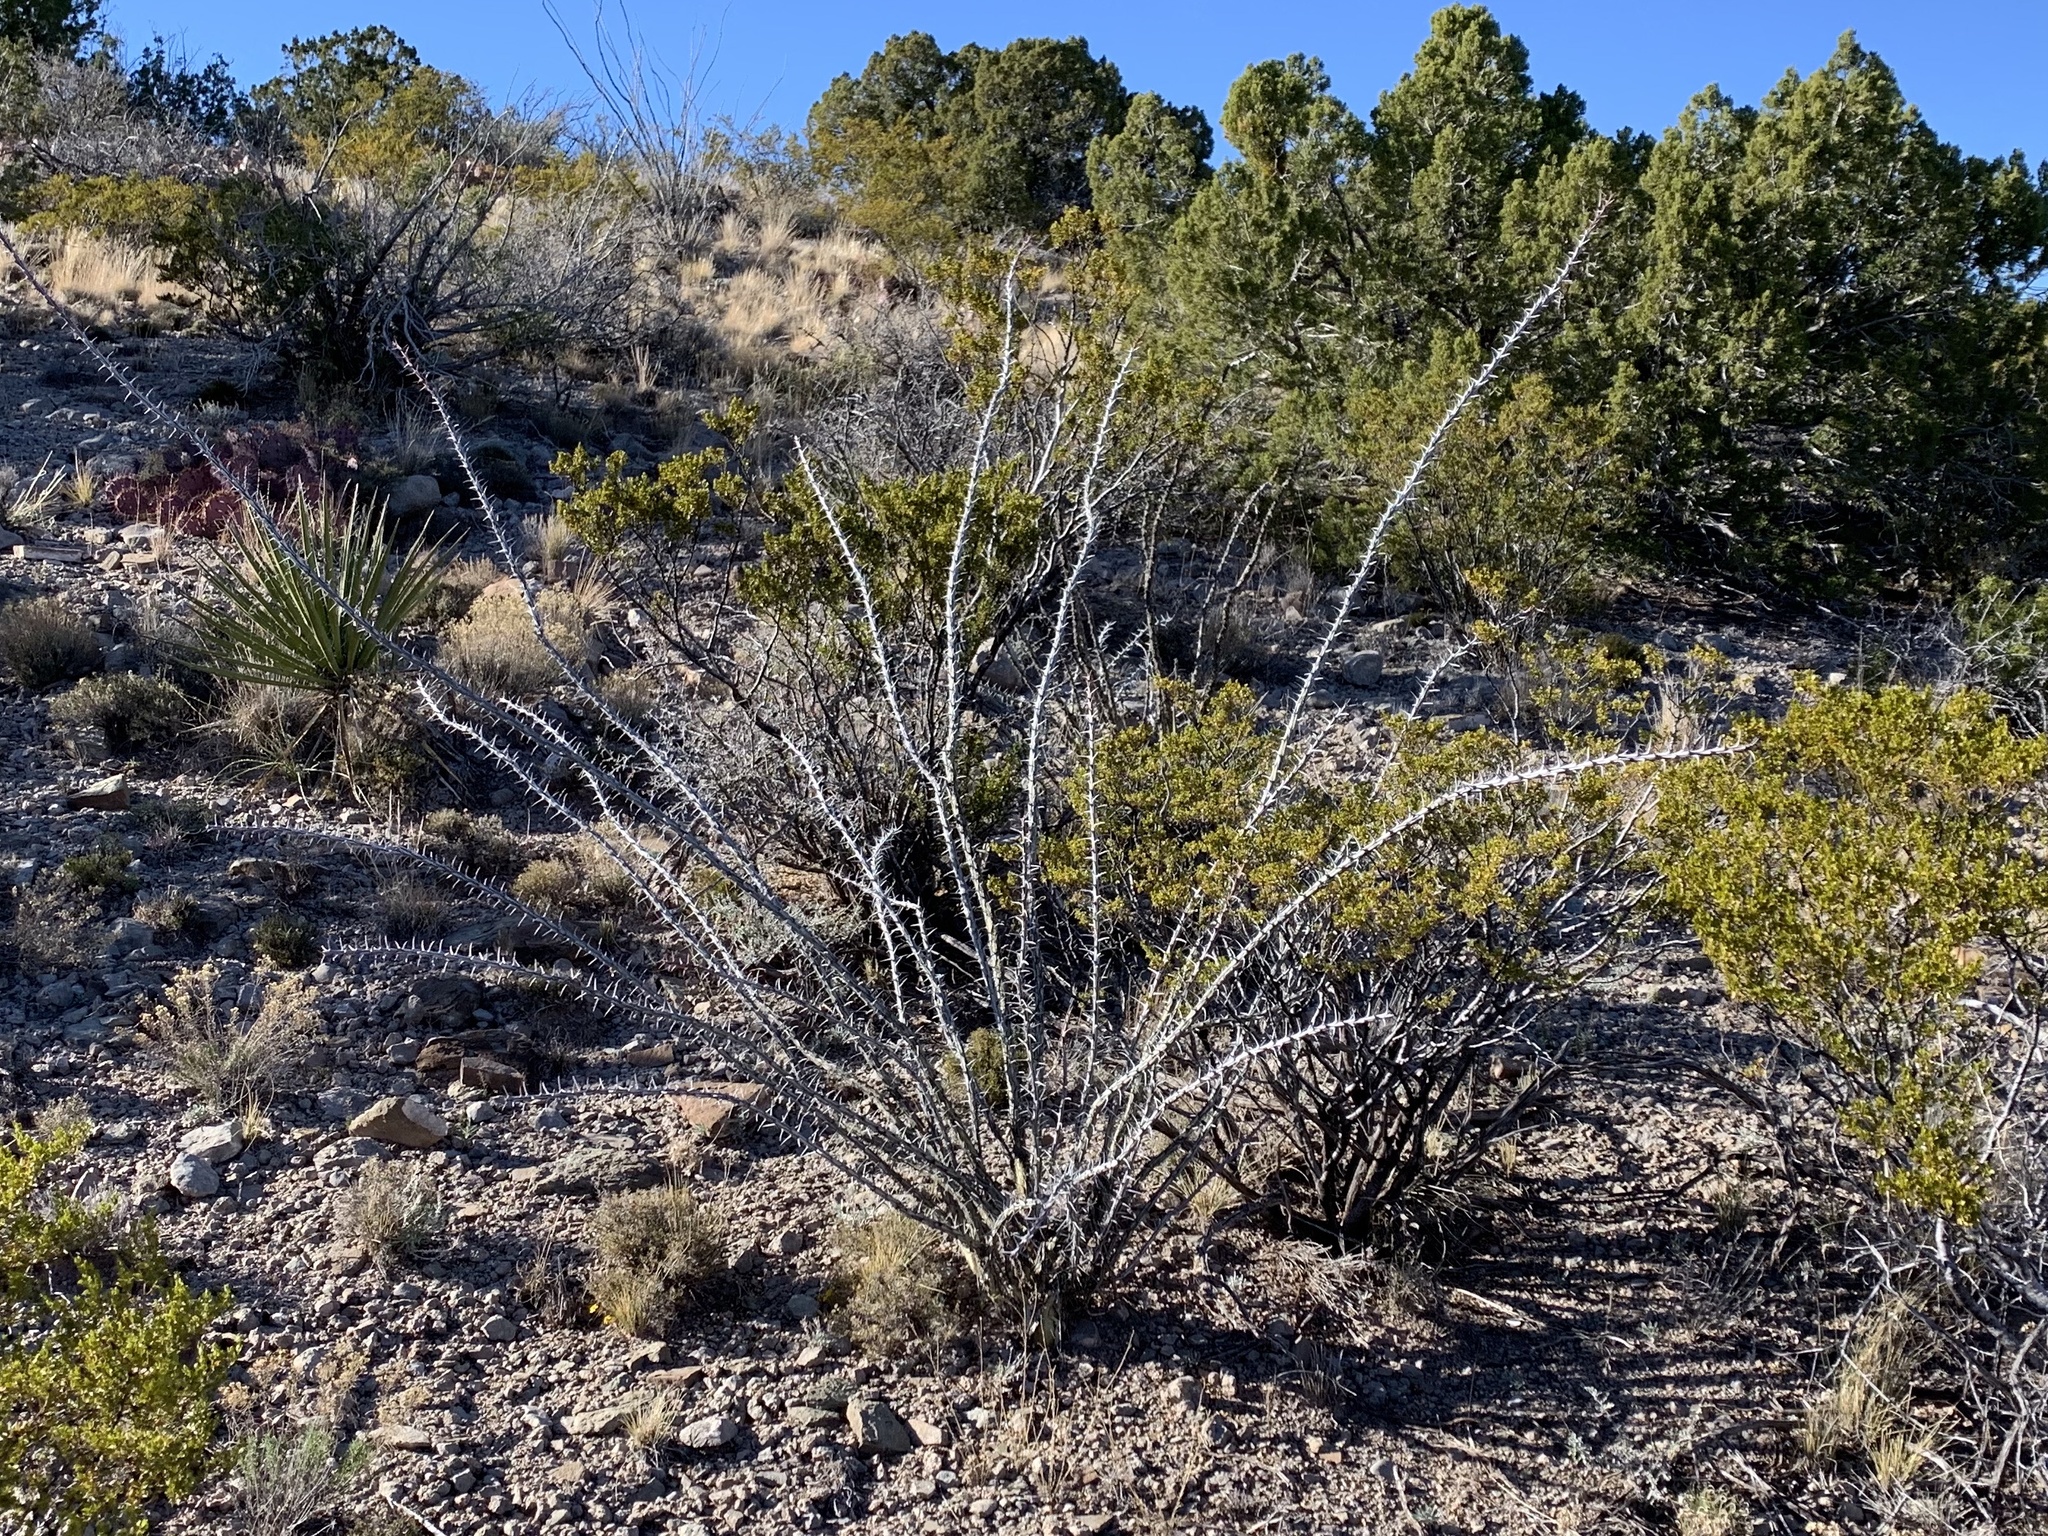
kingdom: Plantae
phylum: Tracheophyta
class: Magnoliopsida
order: Ericales
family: Fouquieriaceae
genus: Fouquieria
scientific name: Fouquieria splendens
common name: Vine-cactus
